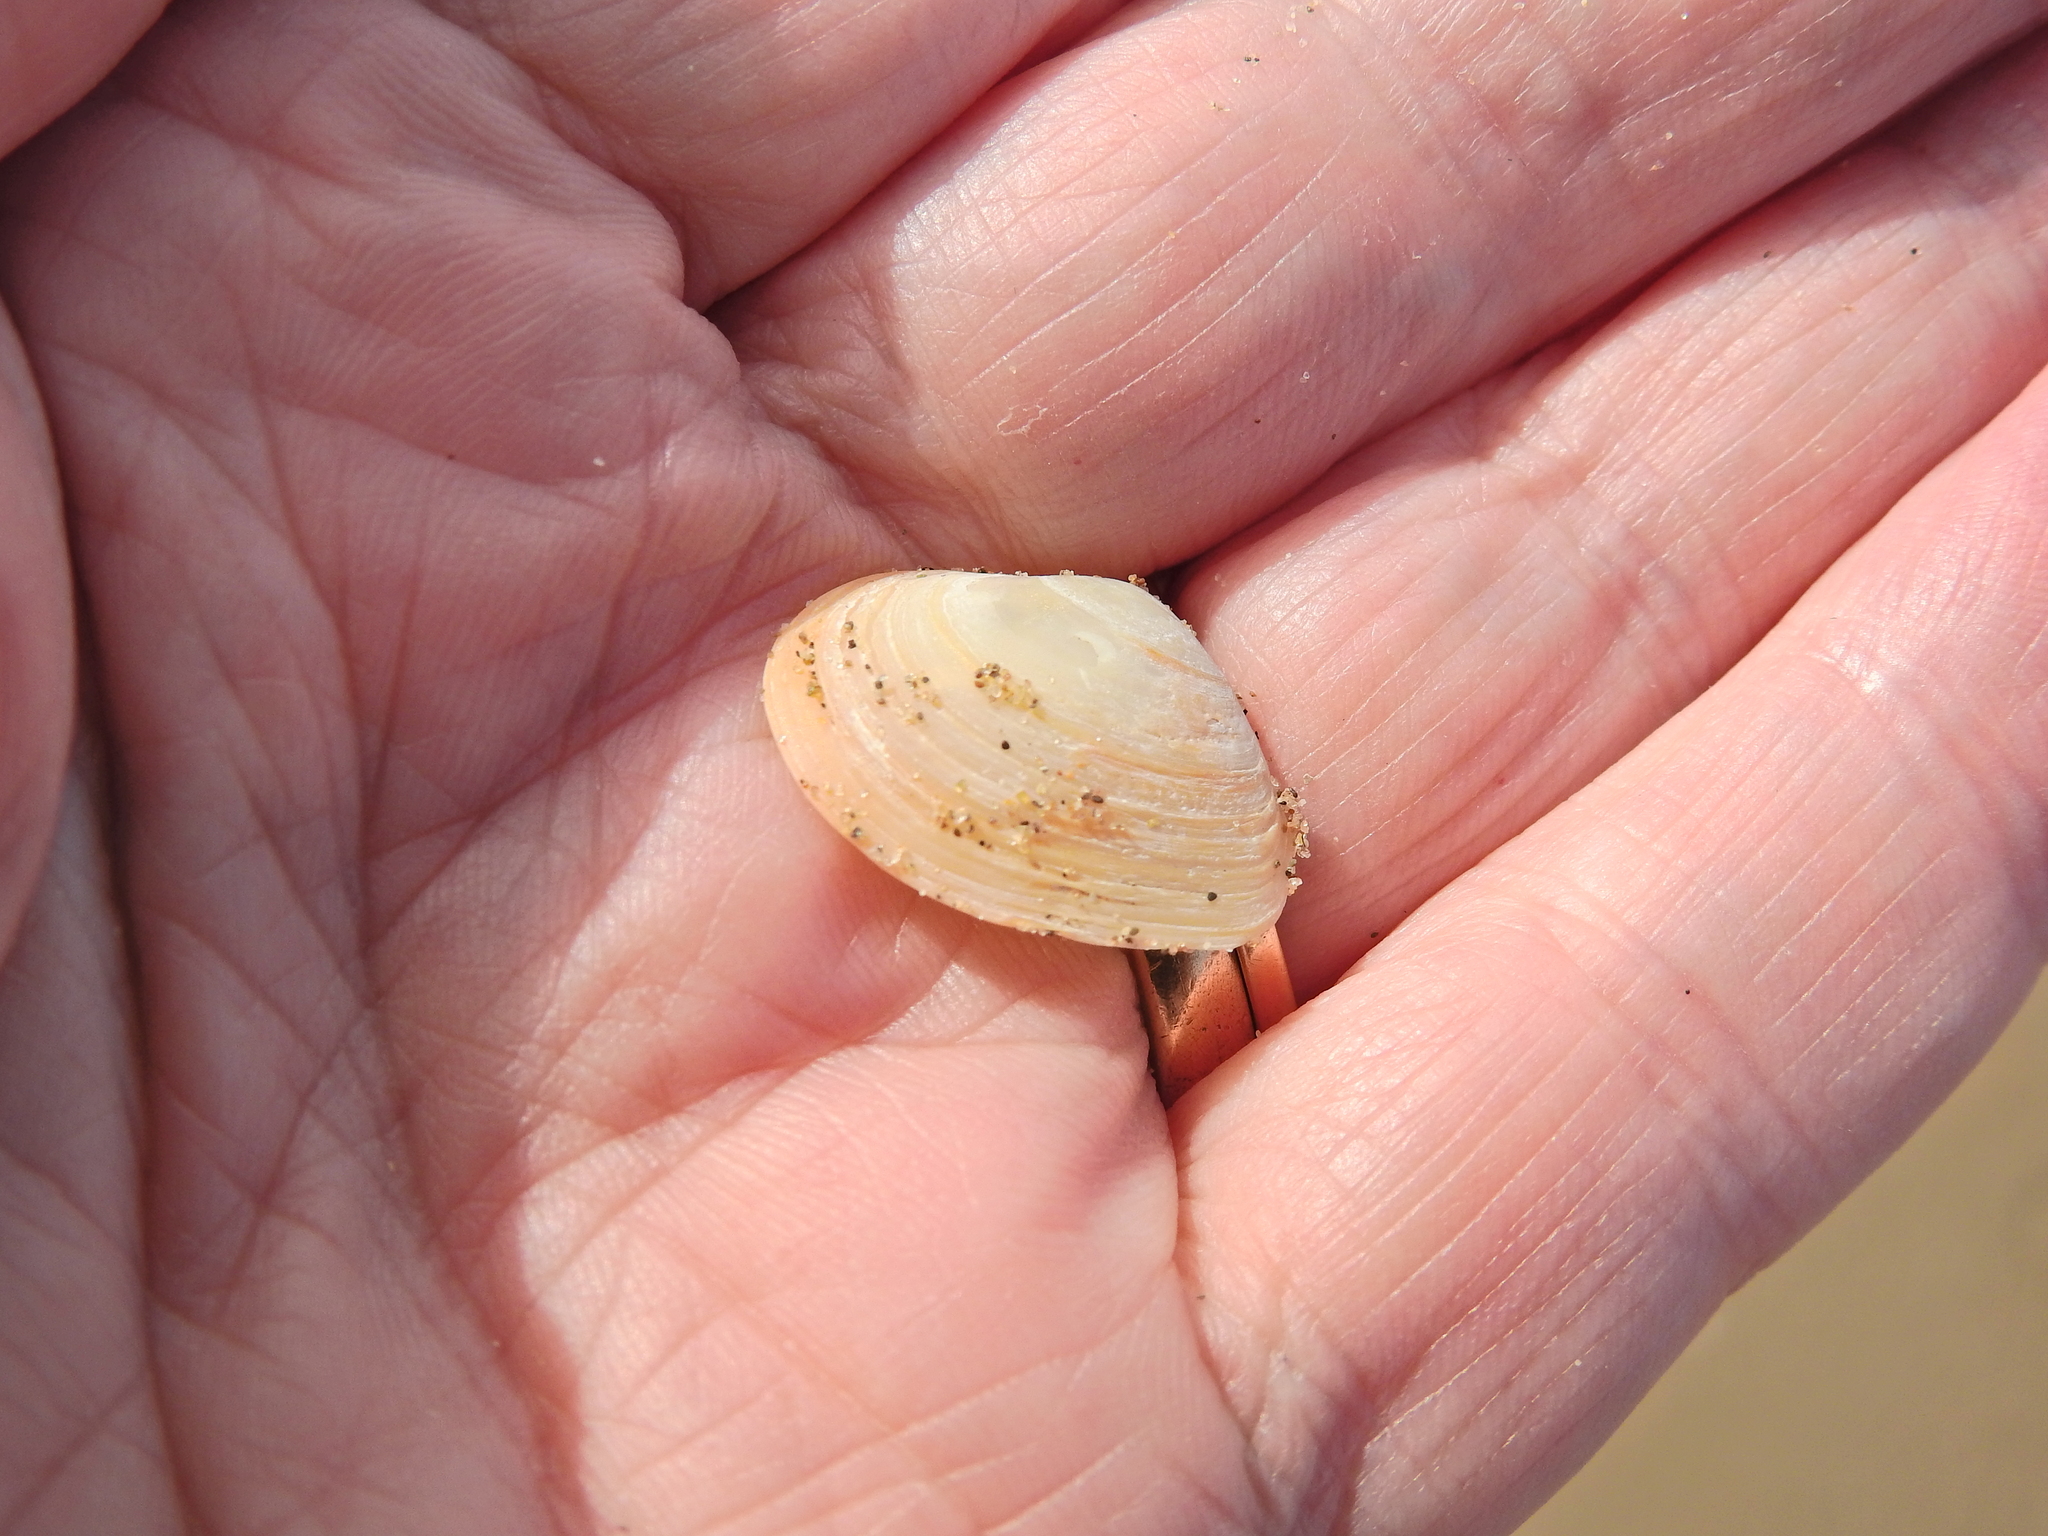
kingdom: Animalia
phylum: Mollusca
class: Bivalvia
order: Cardiida
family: Tellinidae
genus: Macoma
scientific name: Macoma balthica
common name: Baltic tellin
